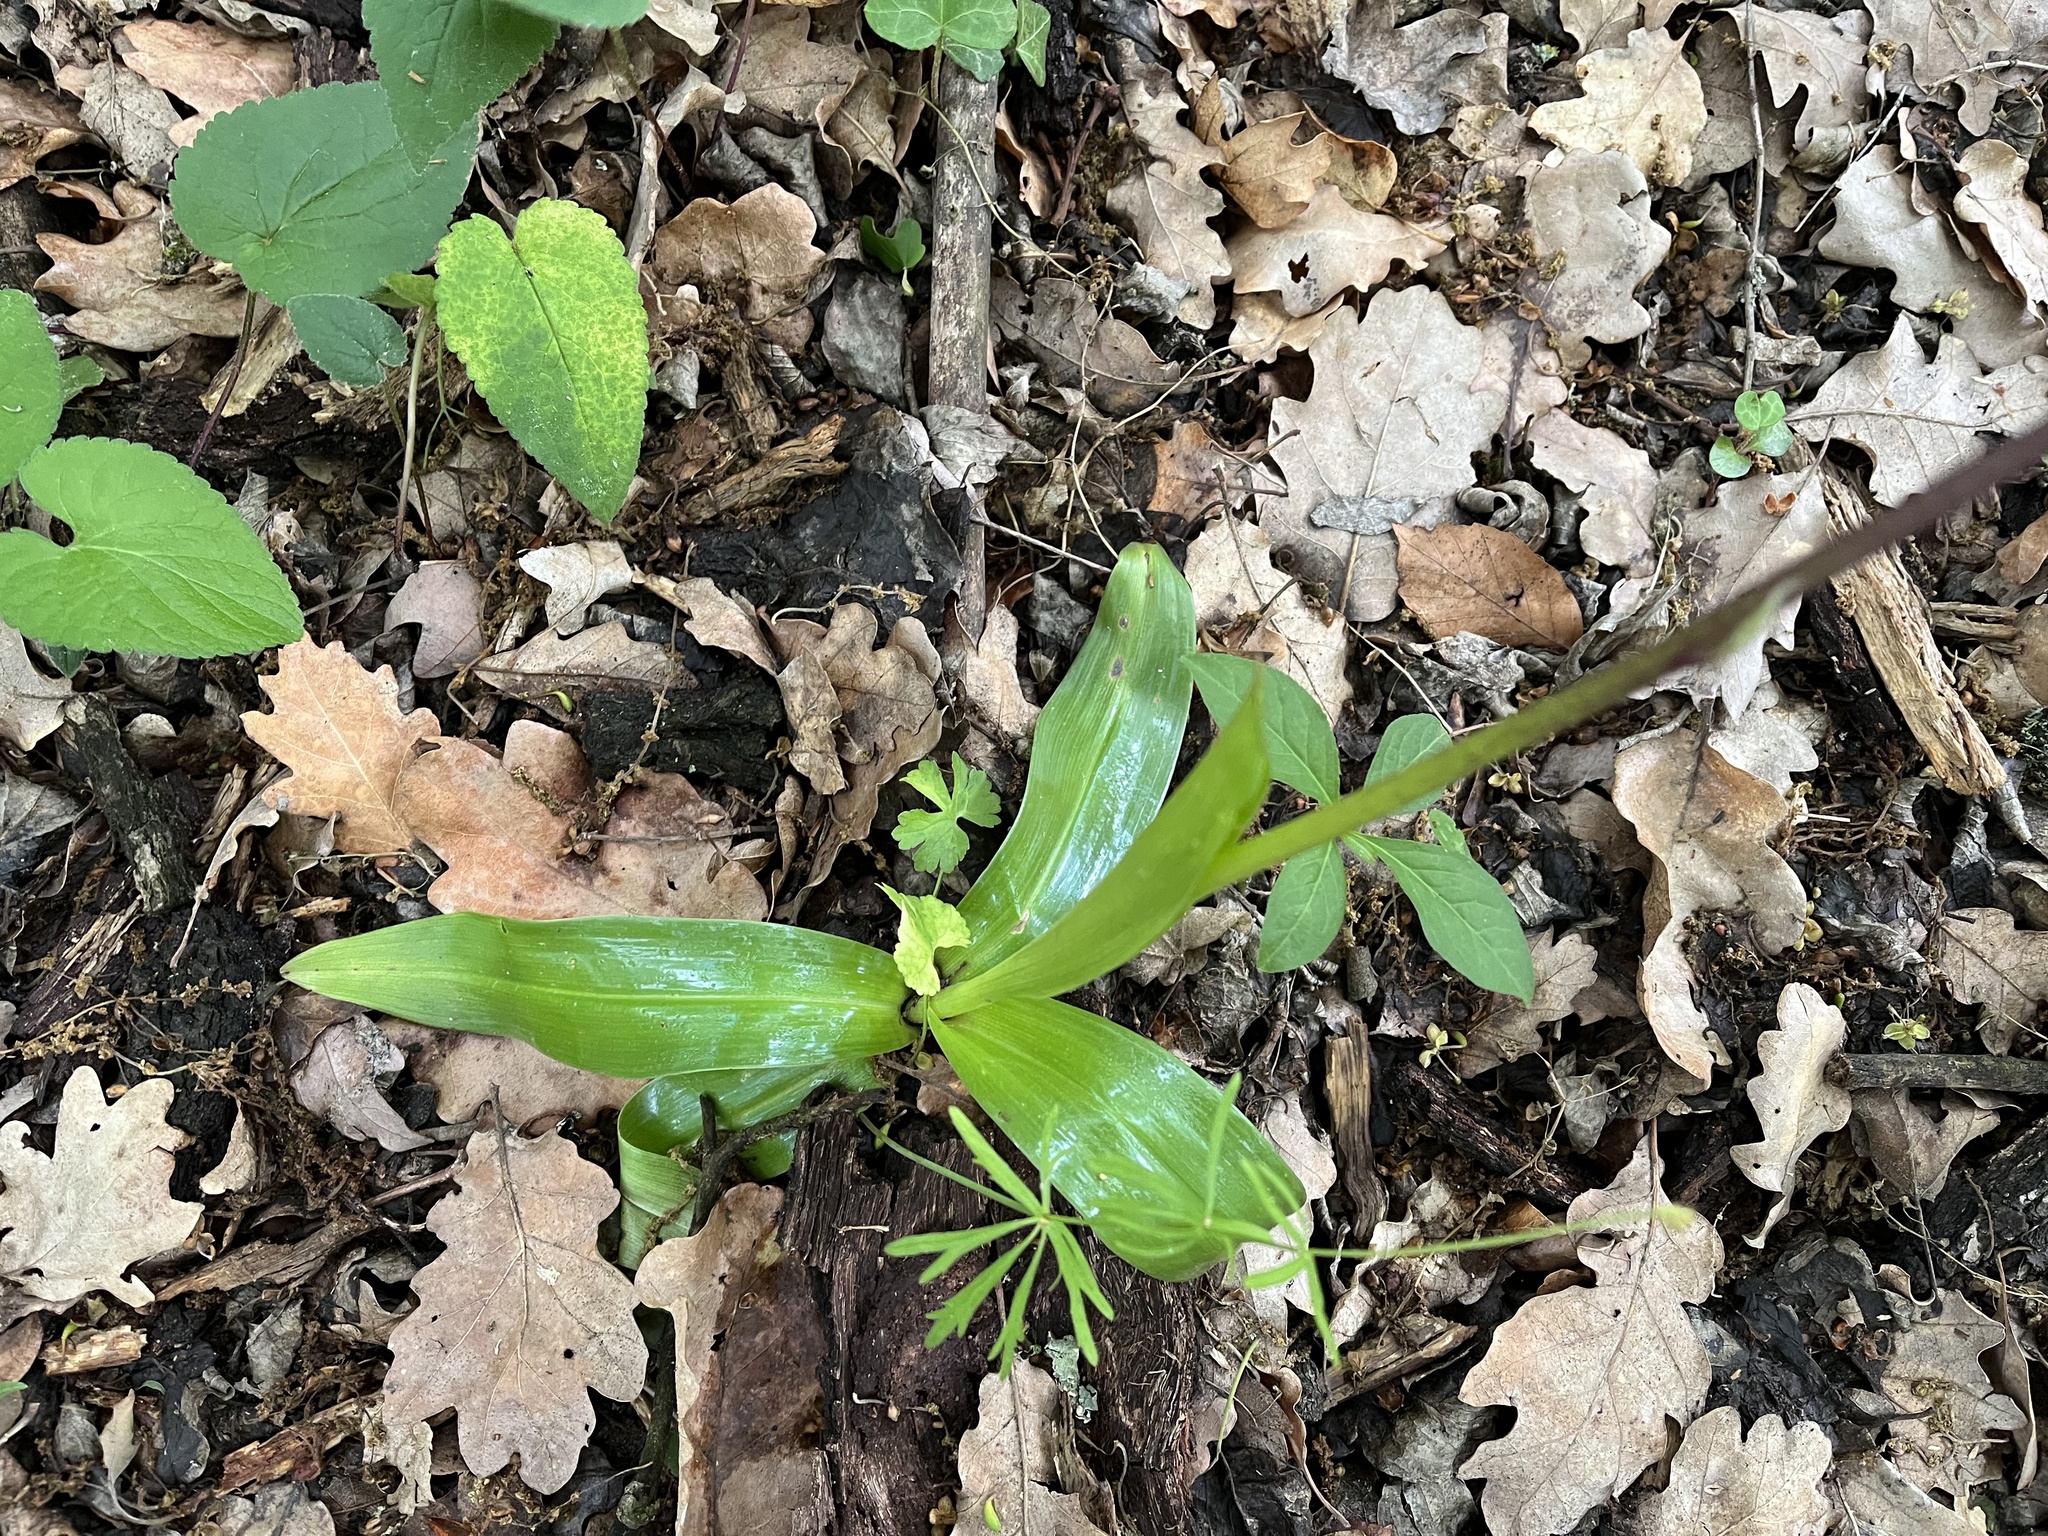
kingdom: Plantae
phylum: Tracheophyta
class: Liliopsida
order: Asparagales
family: Orchidaceae
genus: Orchis
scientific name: Orchis purpurea
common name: Lady orchid
